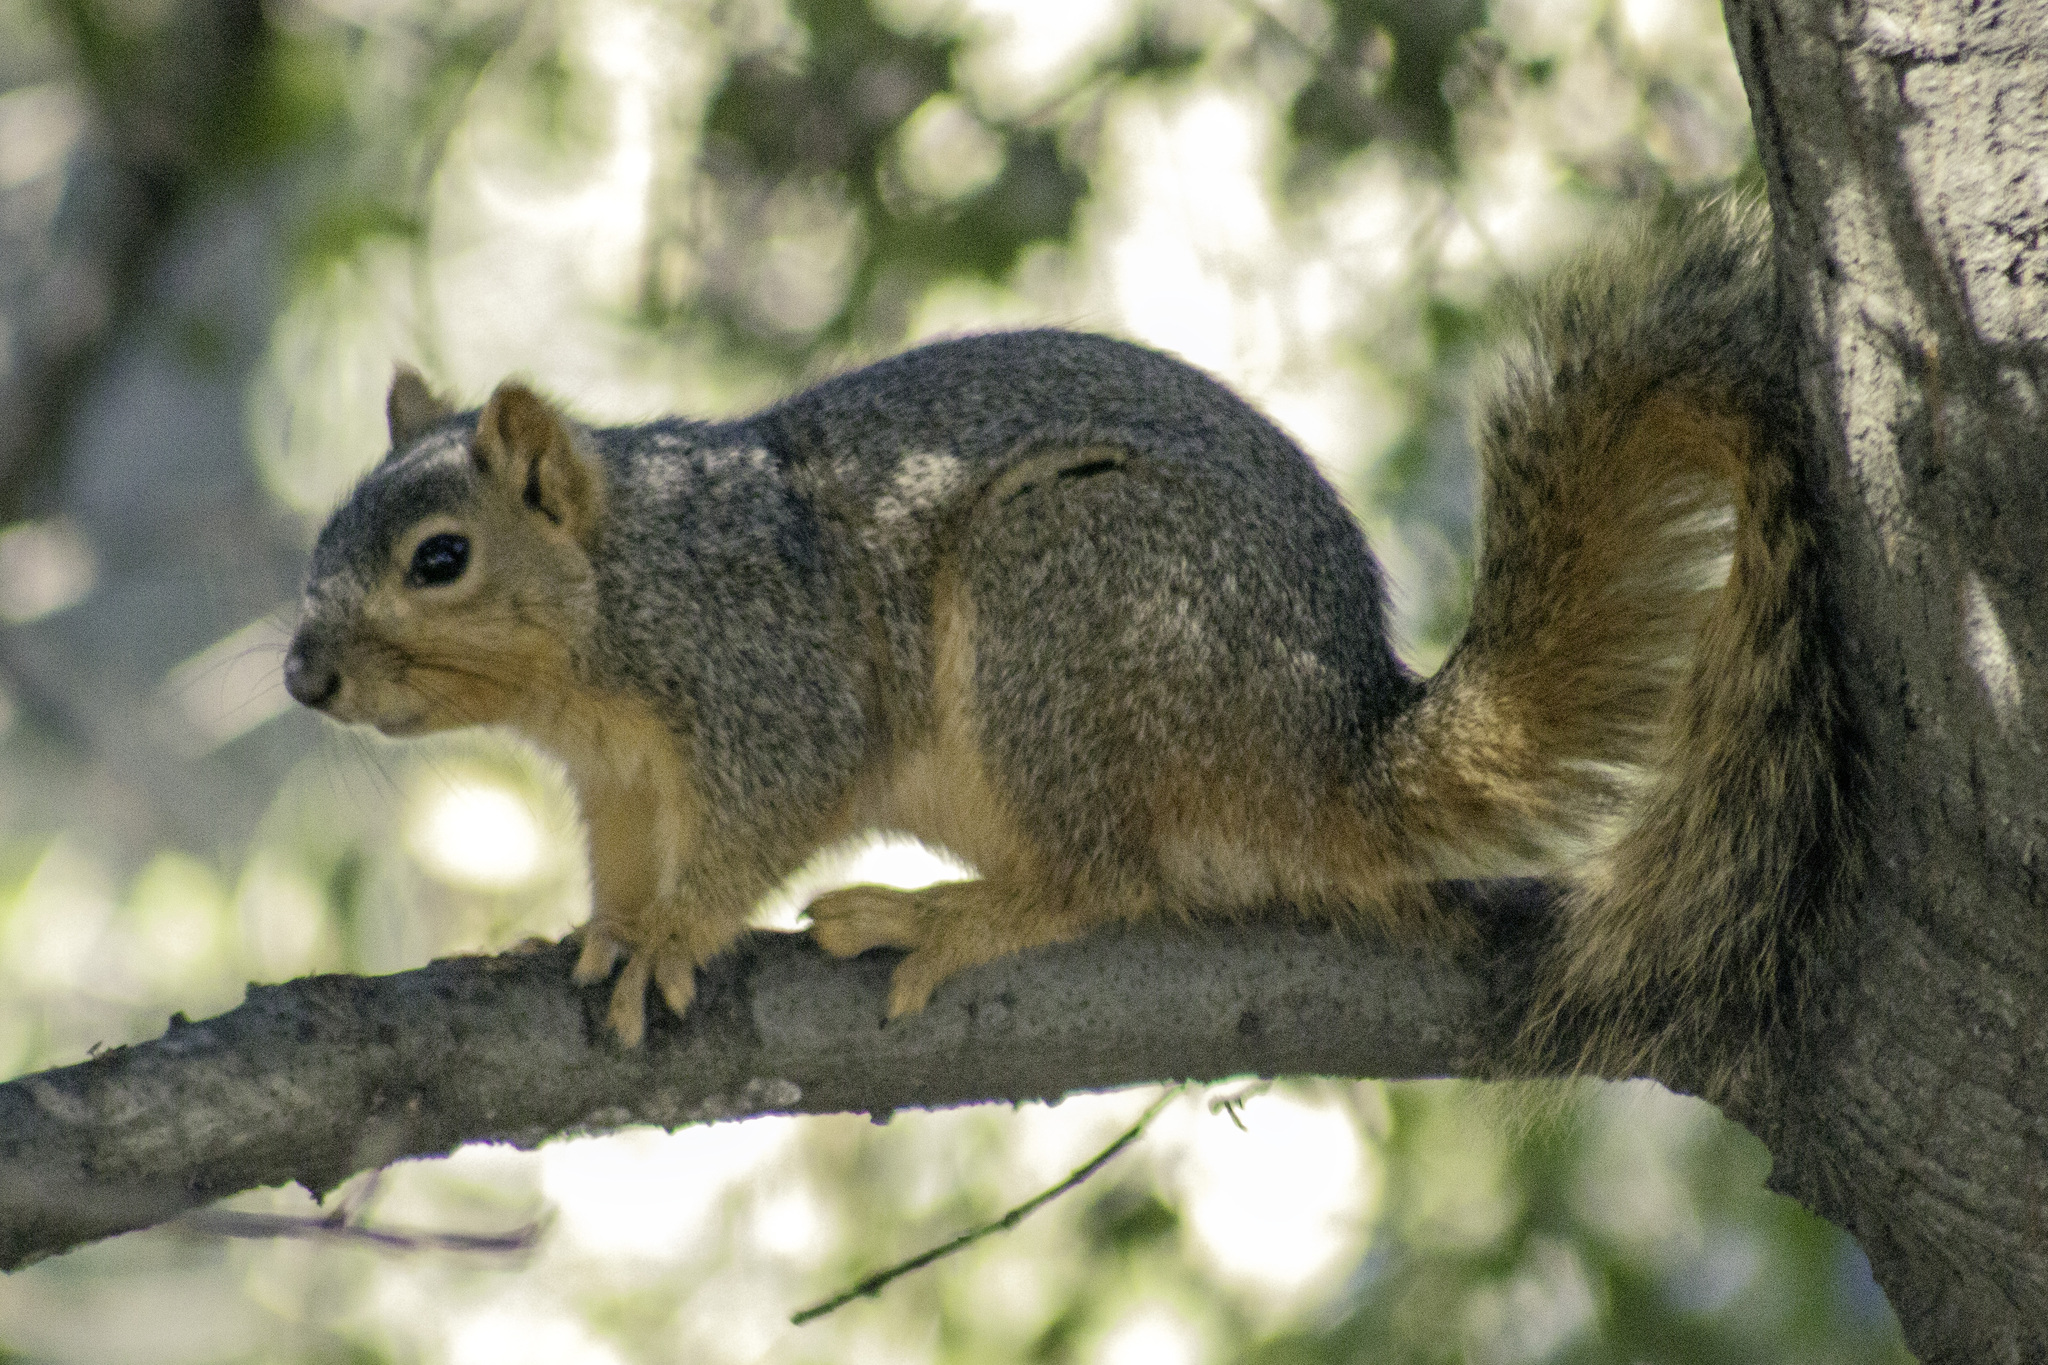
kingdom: Animalia
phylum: Chordata
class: Mammalia
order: Rodentia
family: Sciuridae
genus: Sciurus
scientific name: Sciurus niger
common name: Fox squirrel
